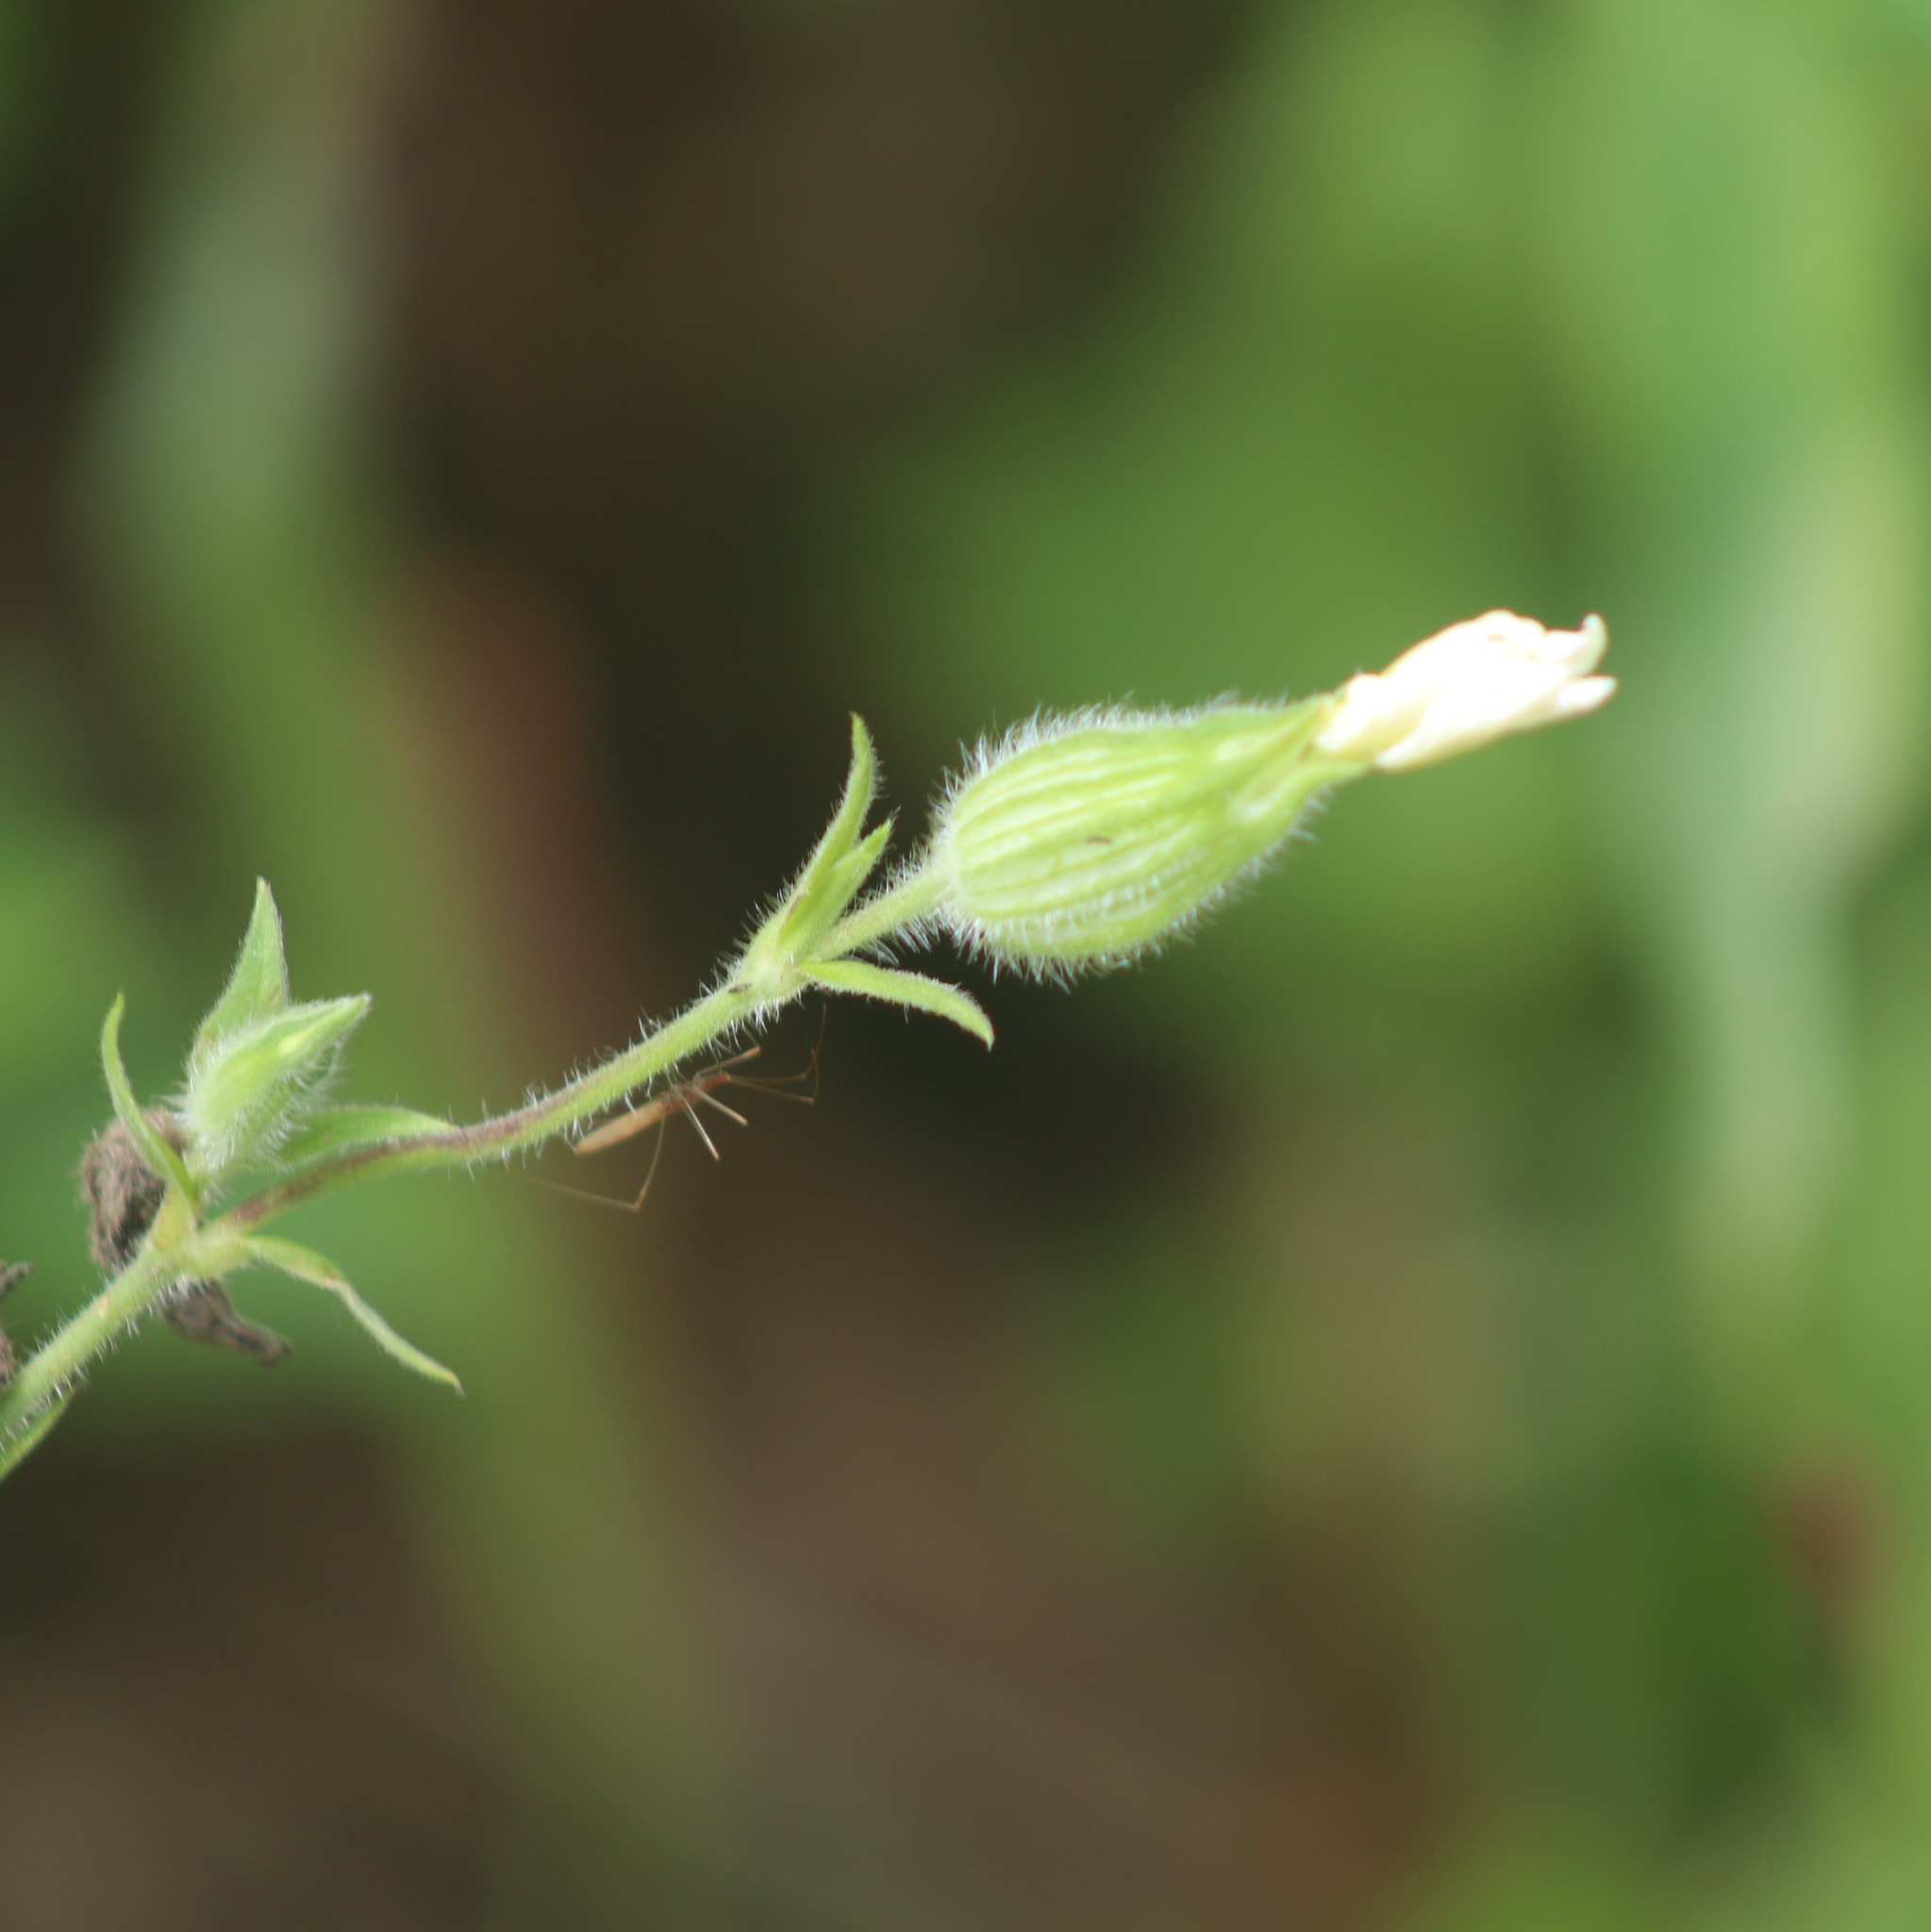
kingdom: Plantae
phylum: Tracheophyta
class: Magnoliopsida
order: Caryophyllales
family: Caryophyllaceae
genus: Silene
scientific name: Silene latifolia
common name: White campion
